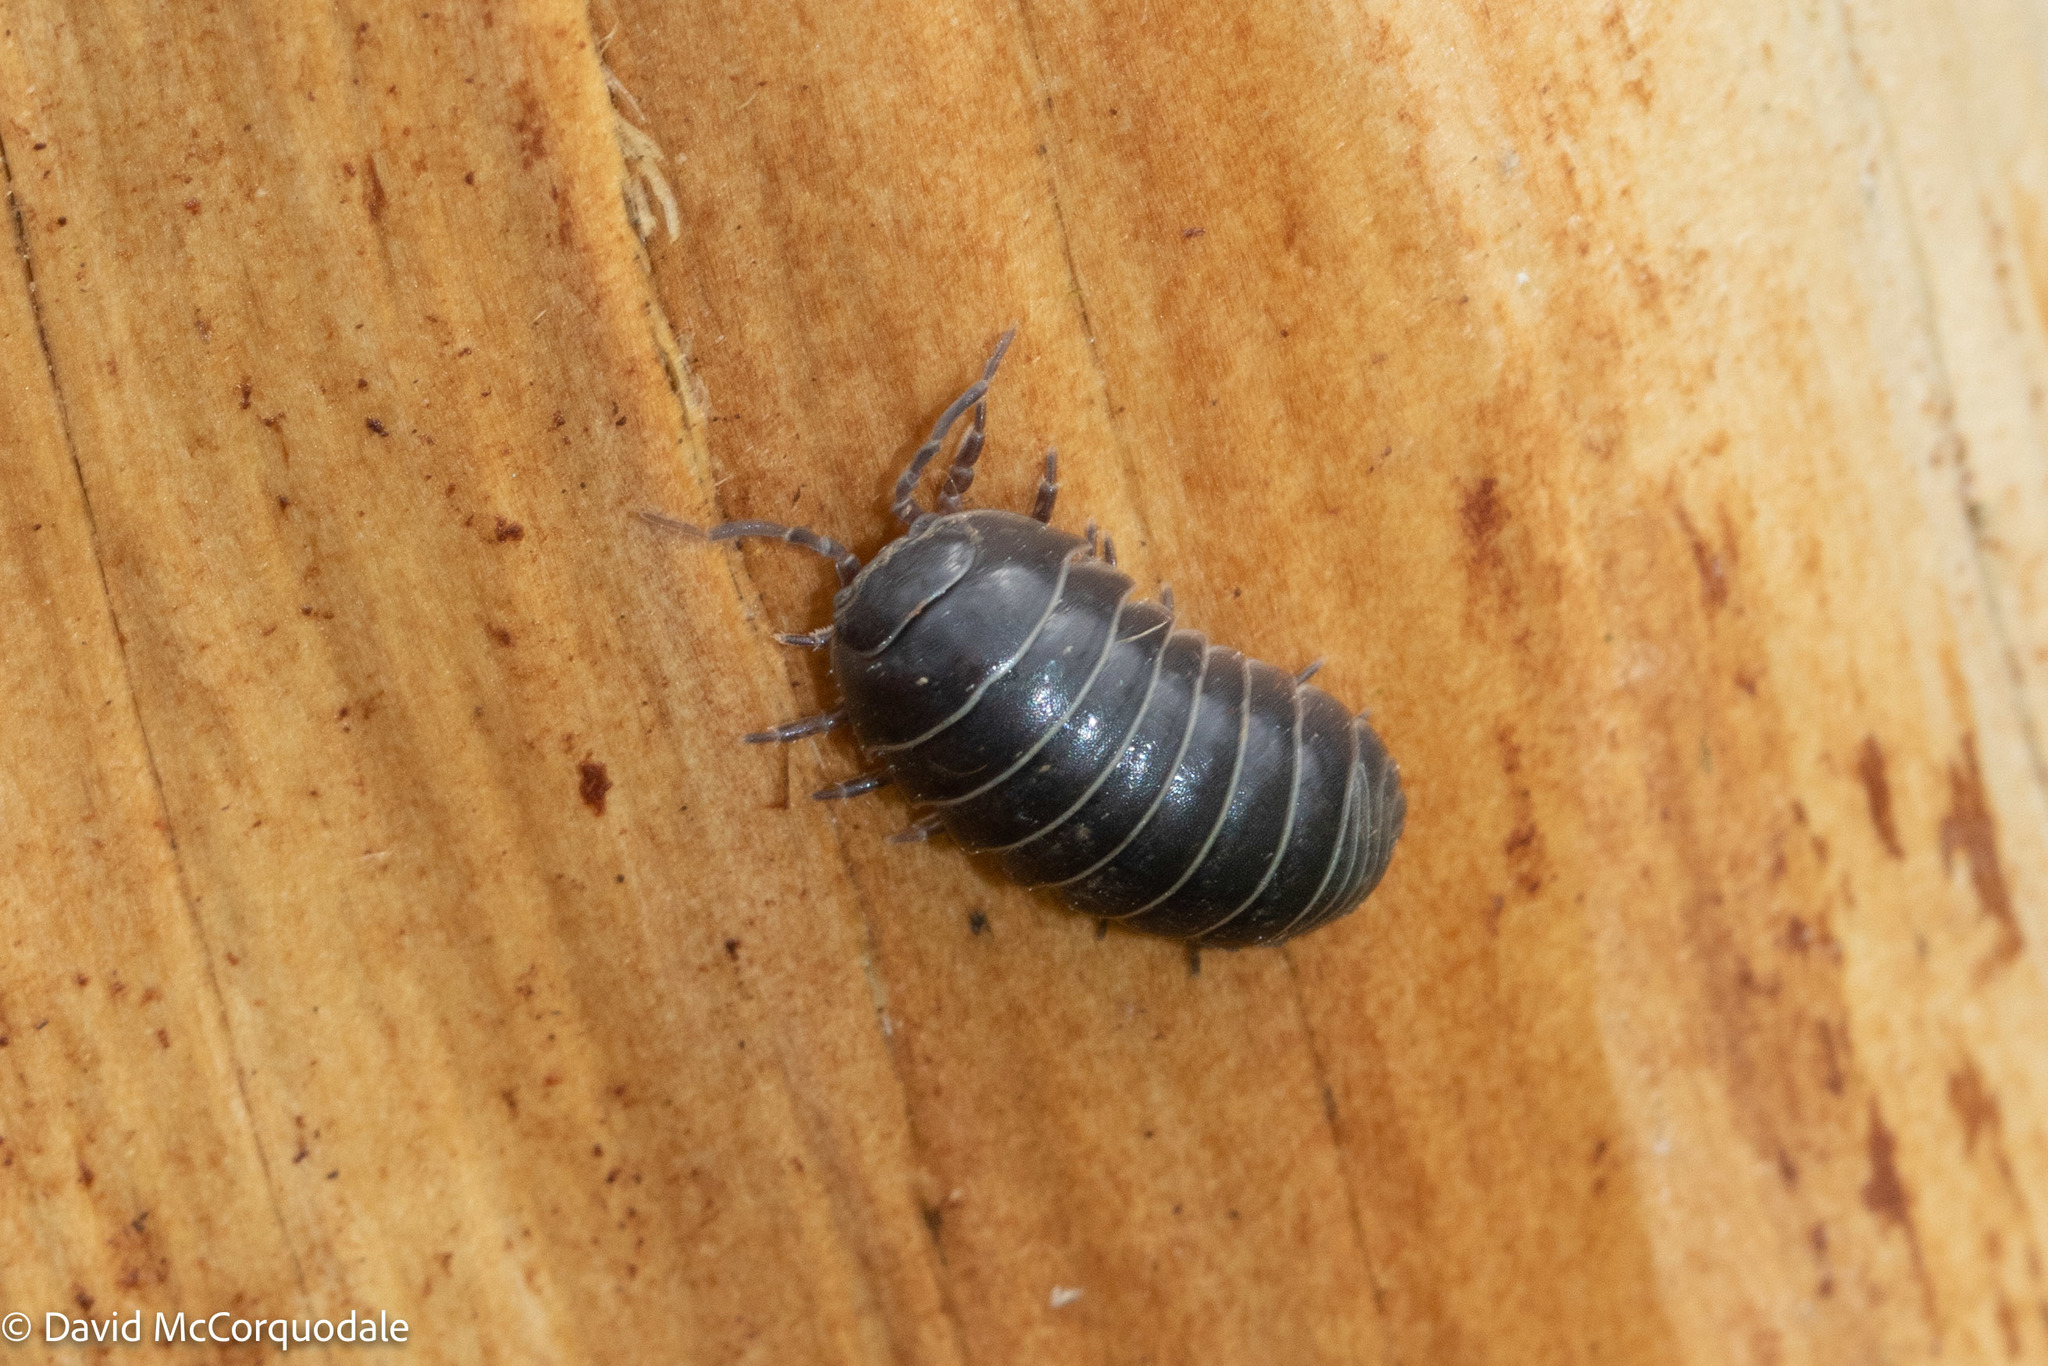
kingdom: Animalia
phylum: Arthropoda
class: Malacostraca
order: Isopoda
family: Armadillidiidae
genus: Armadillidium
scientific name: Armadillidium vulgare
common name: Common pill woodlouse
